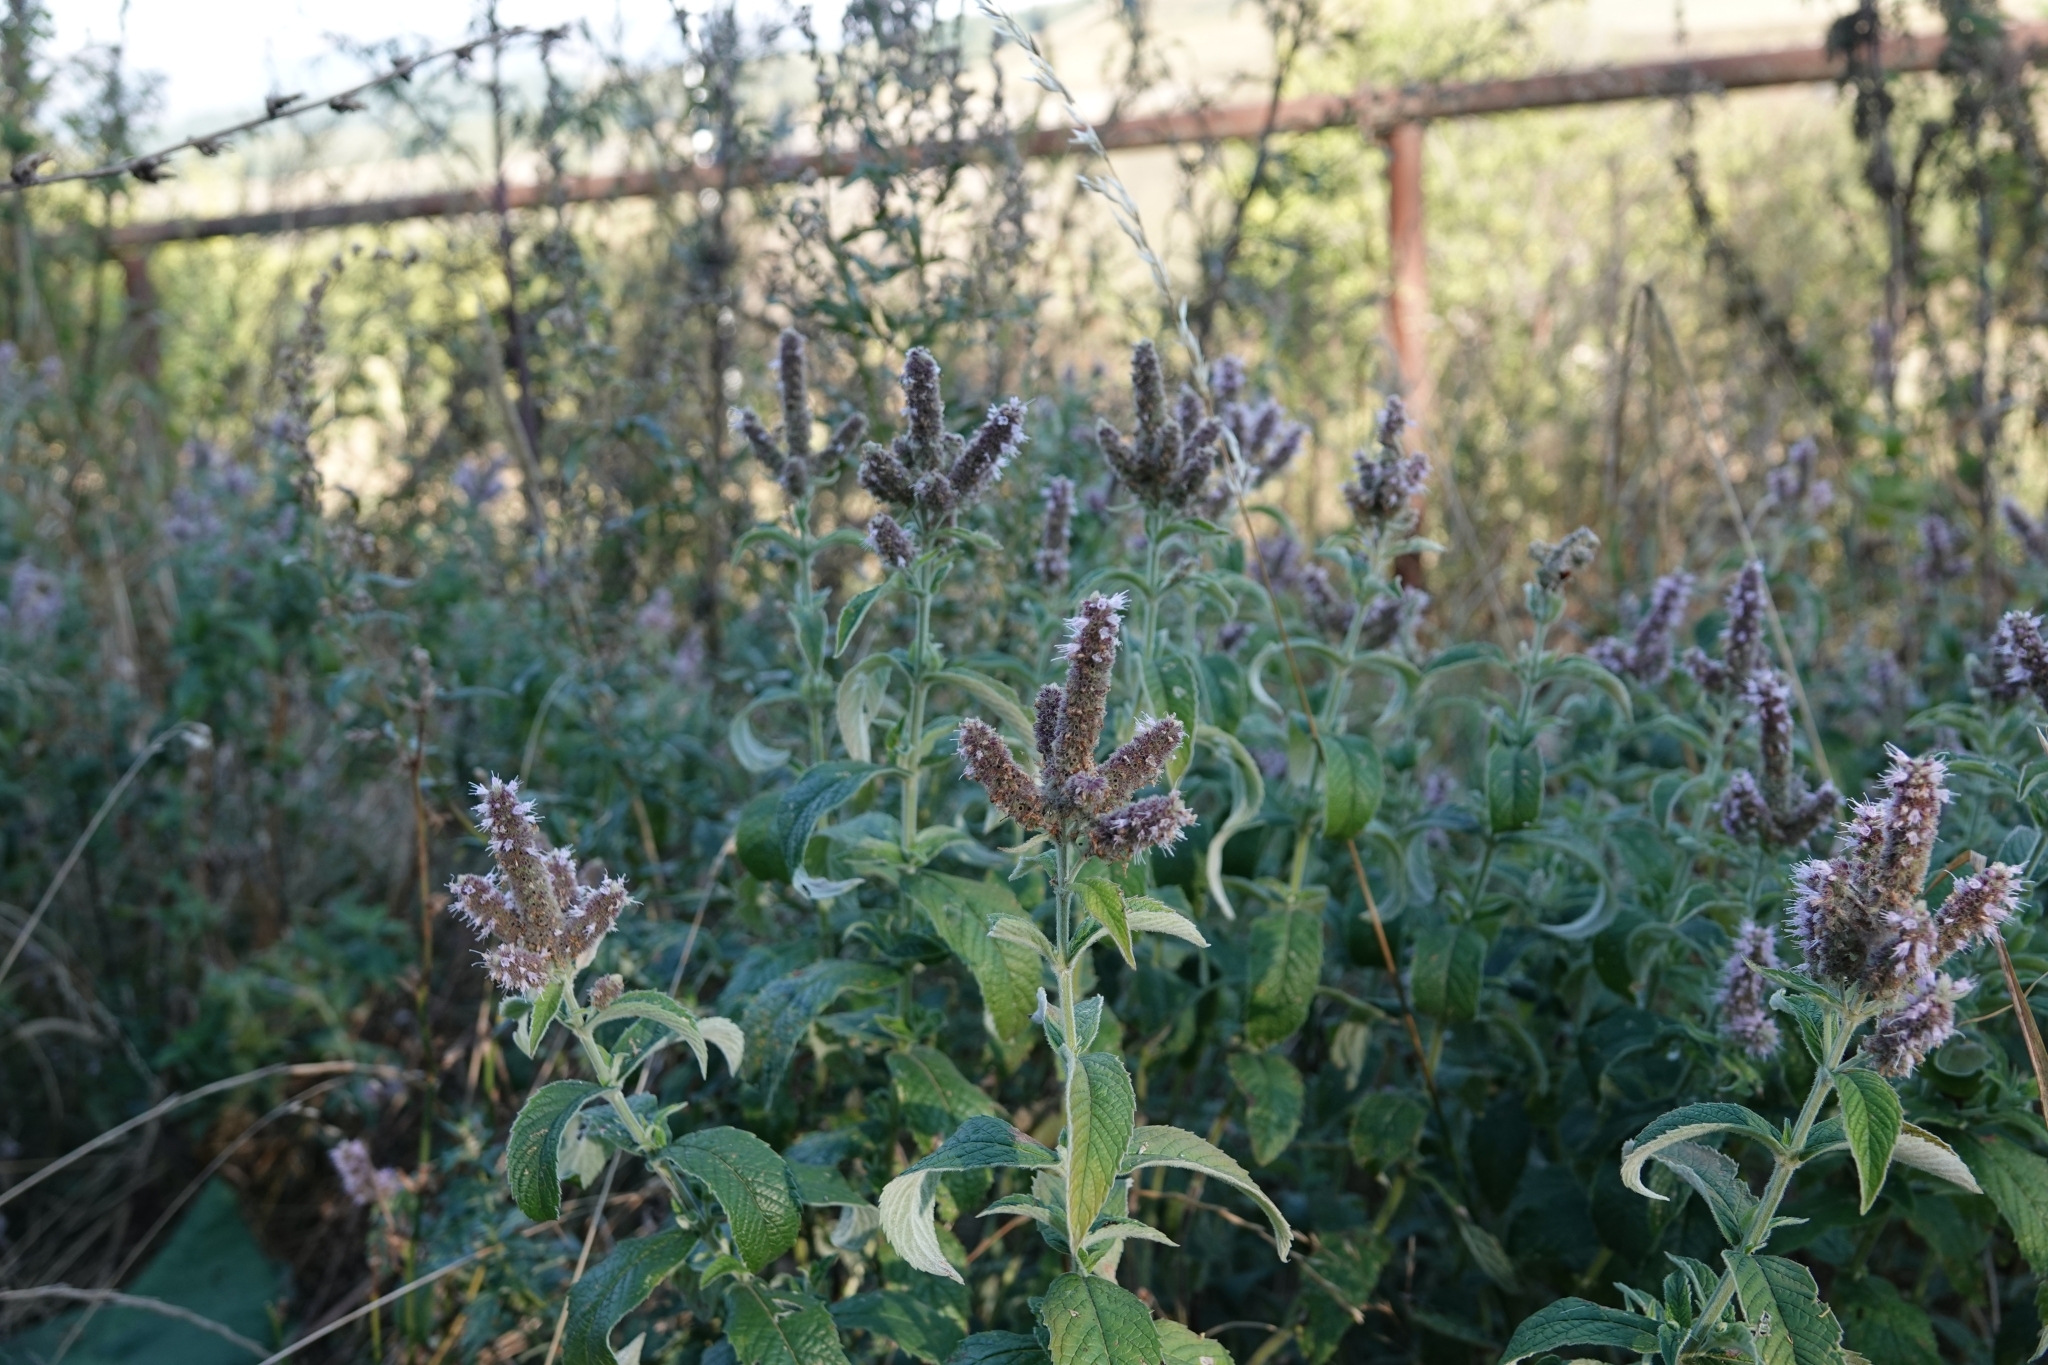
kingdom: Plantae
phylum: Tracheophyta
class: Magnoliopsida
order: Lamiales
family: Lamiaceae
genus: Mentha
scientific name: Mentha longifolia
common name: Horse mint
